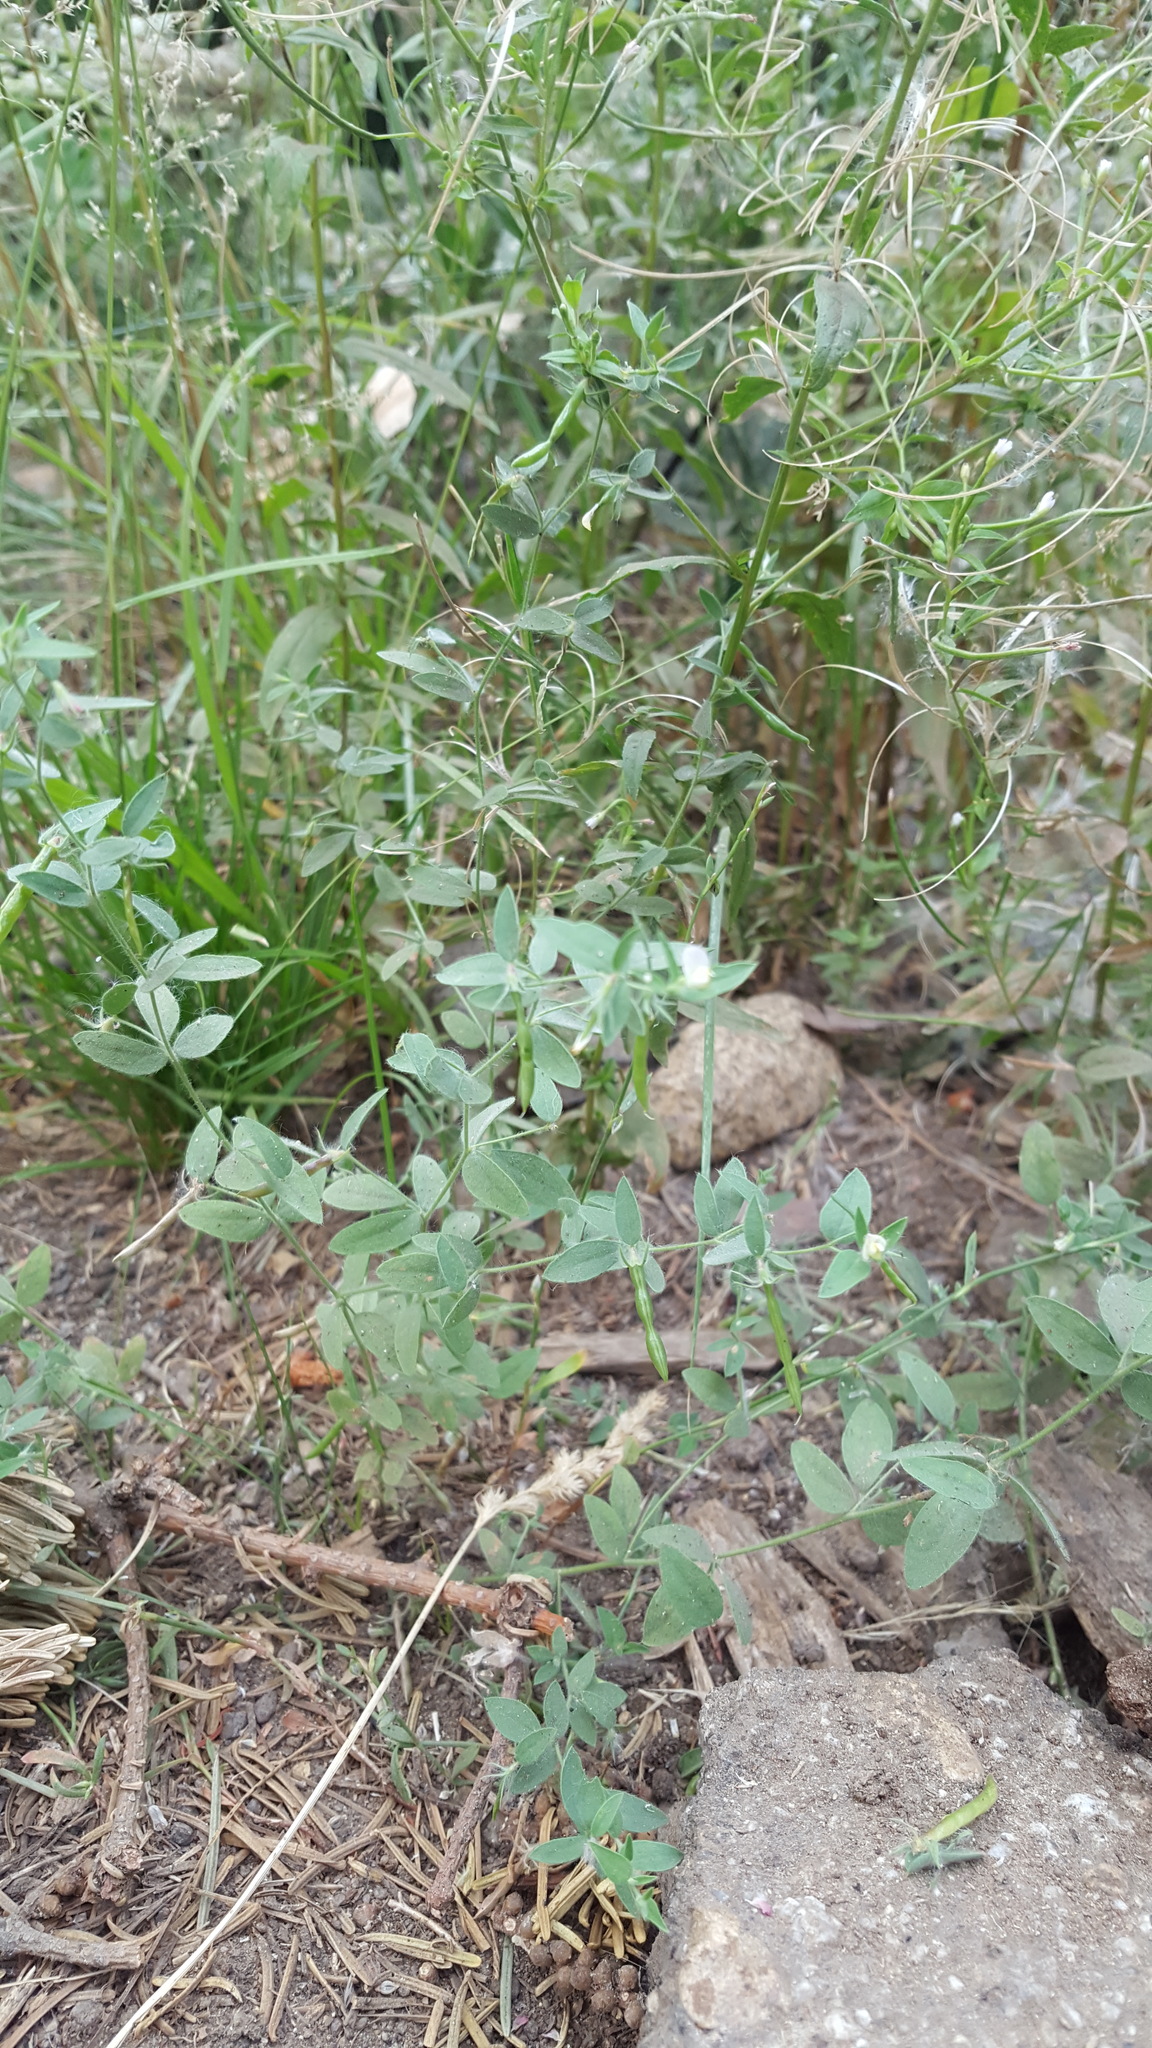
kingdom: Plantae
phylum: Tracheophyta
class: Magnoliopsida
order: Fabales
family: Fabaceae
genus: Acmispon
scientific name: Acmispon americanus
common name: American bird's-foot trefoil
